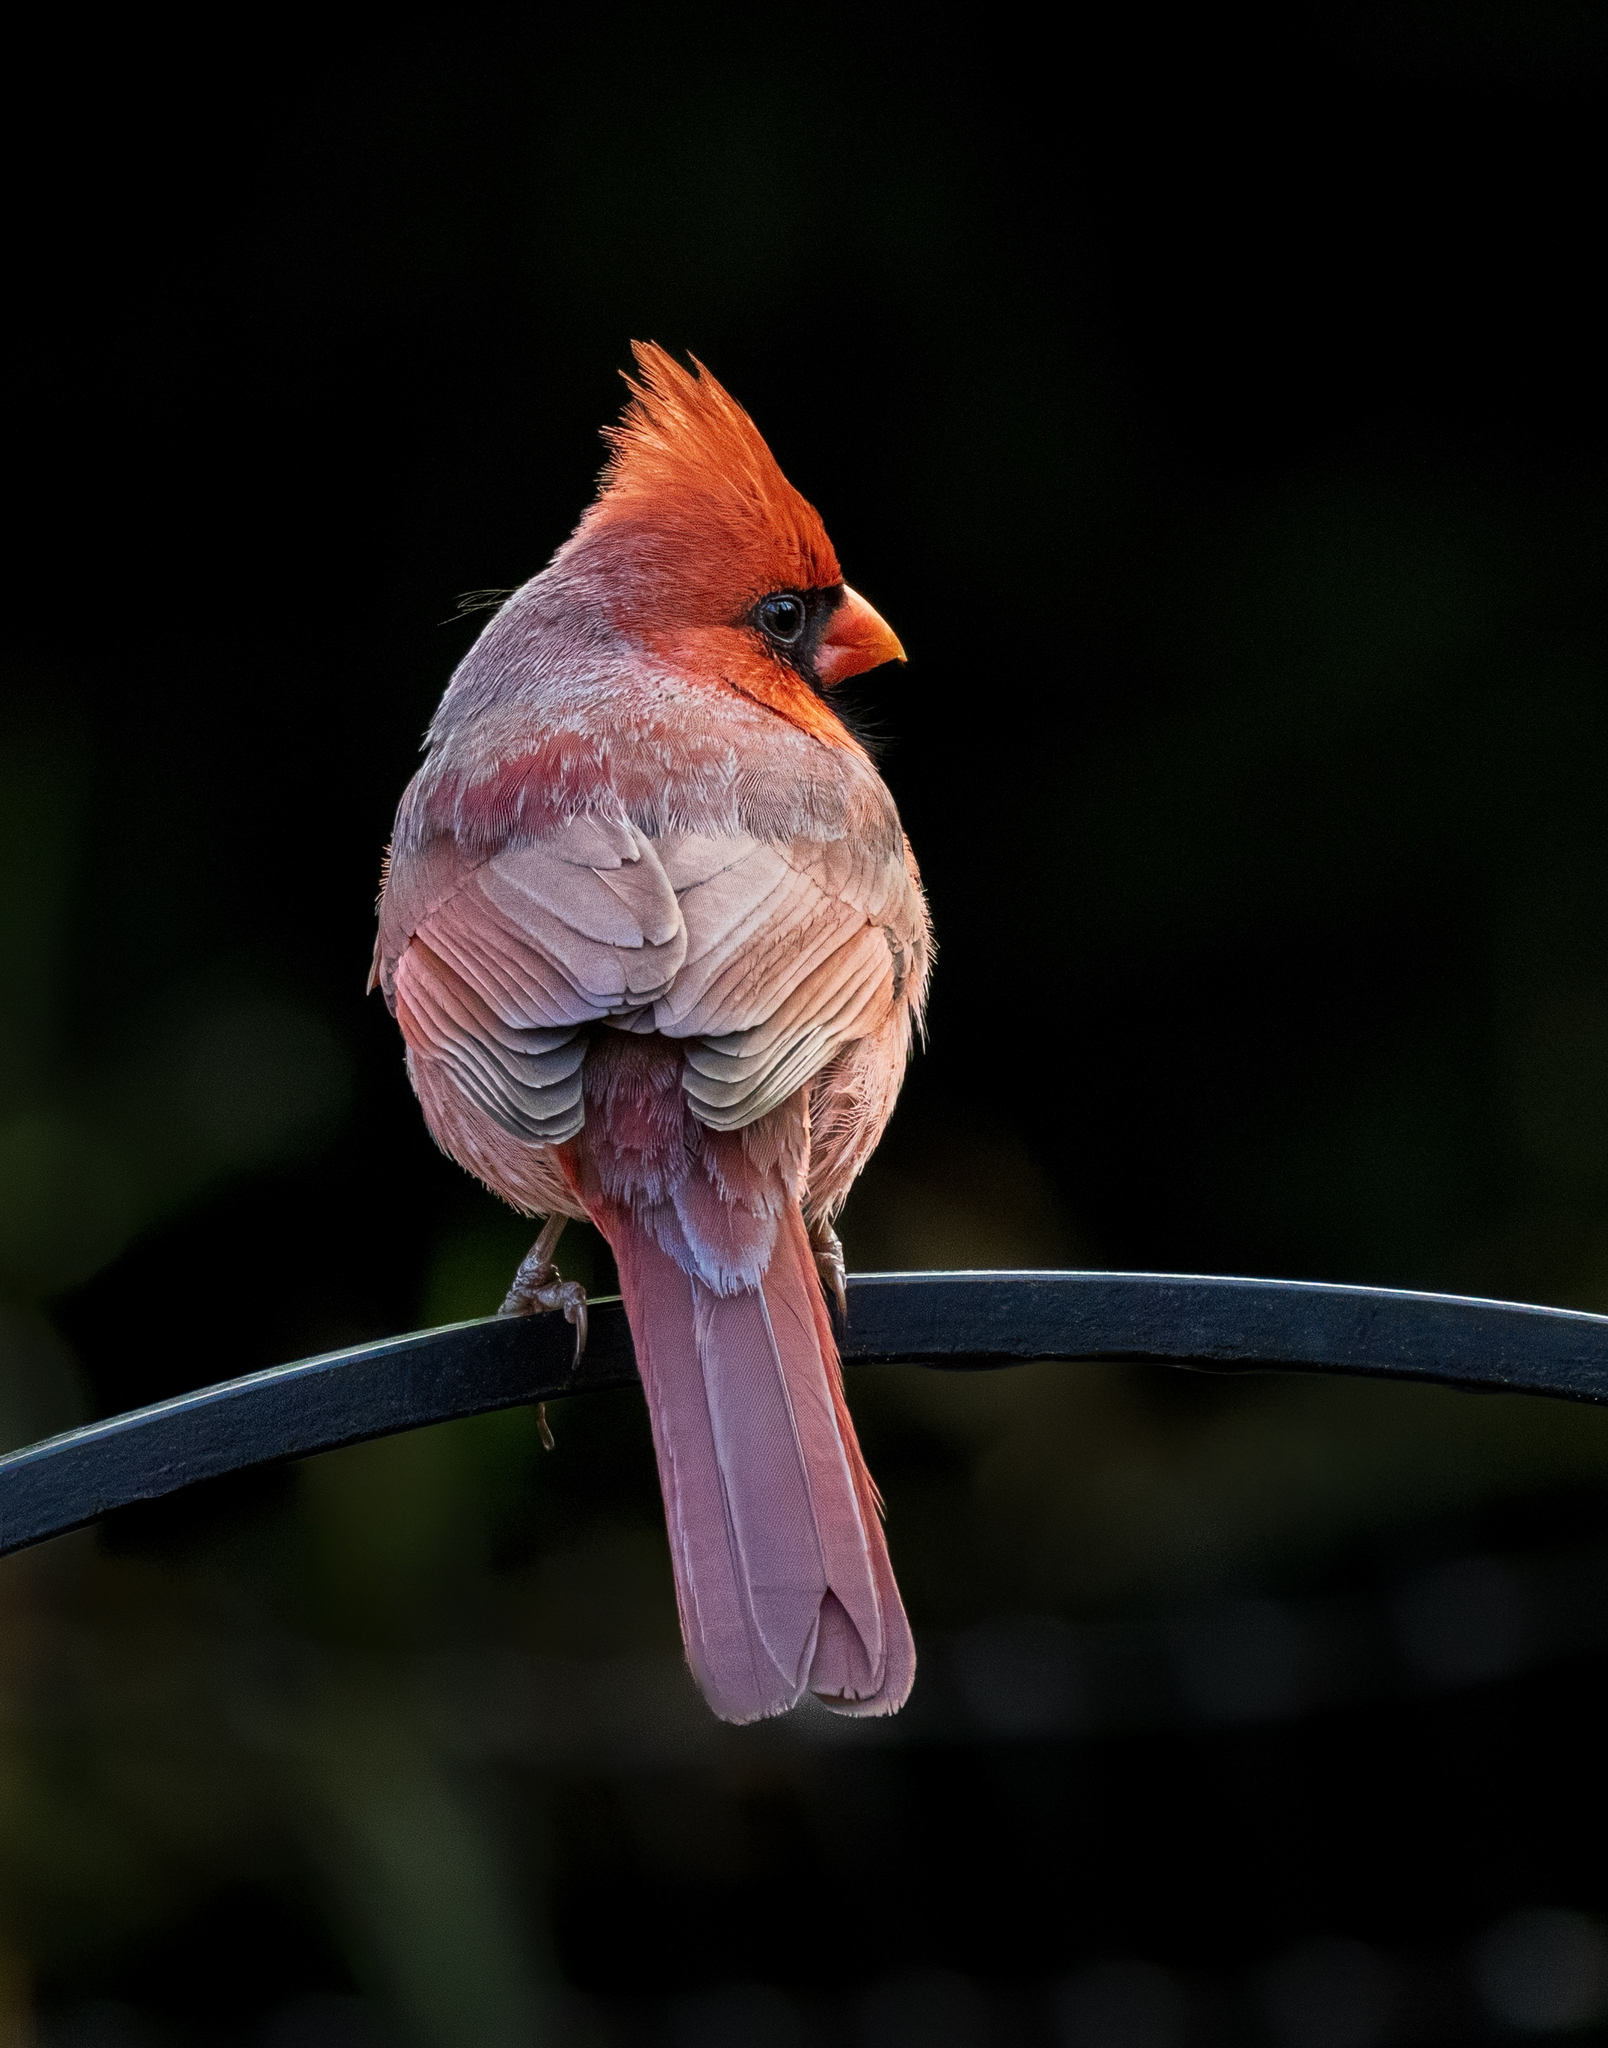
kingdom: Animalia
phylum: Chordata
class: Aves
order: Passeriformes
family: Cardinalidae
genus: Cardinalis
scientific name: Cardinalis cardinalis
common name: Northern cardinal
